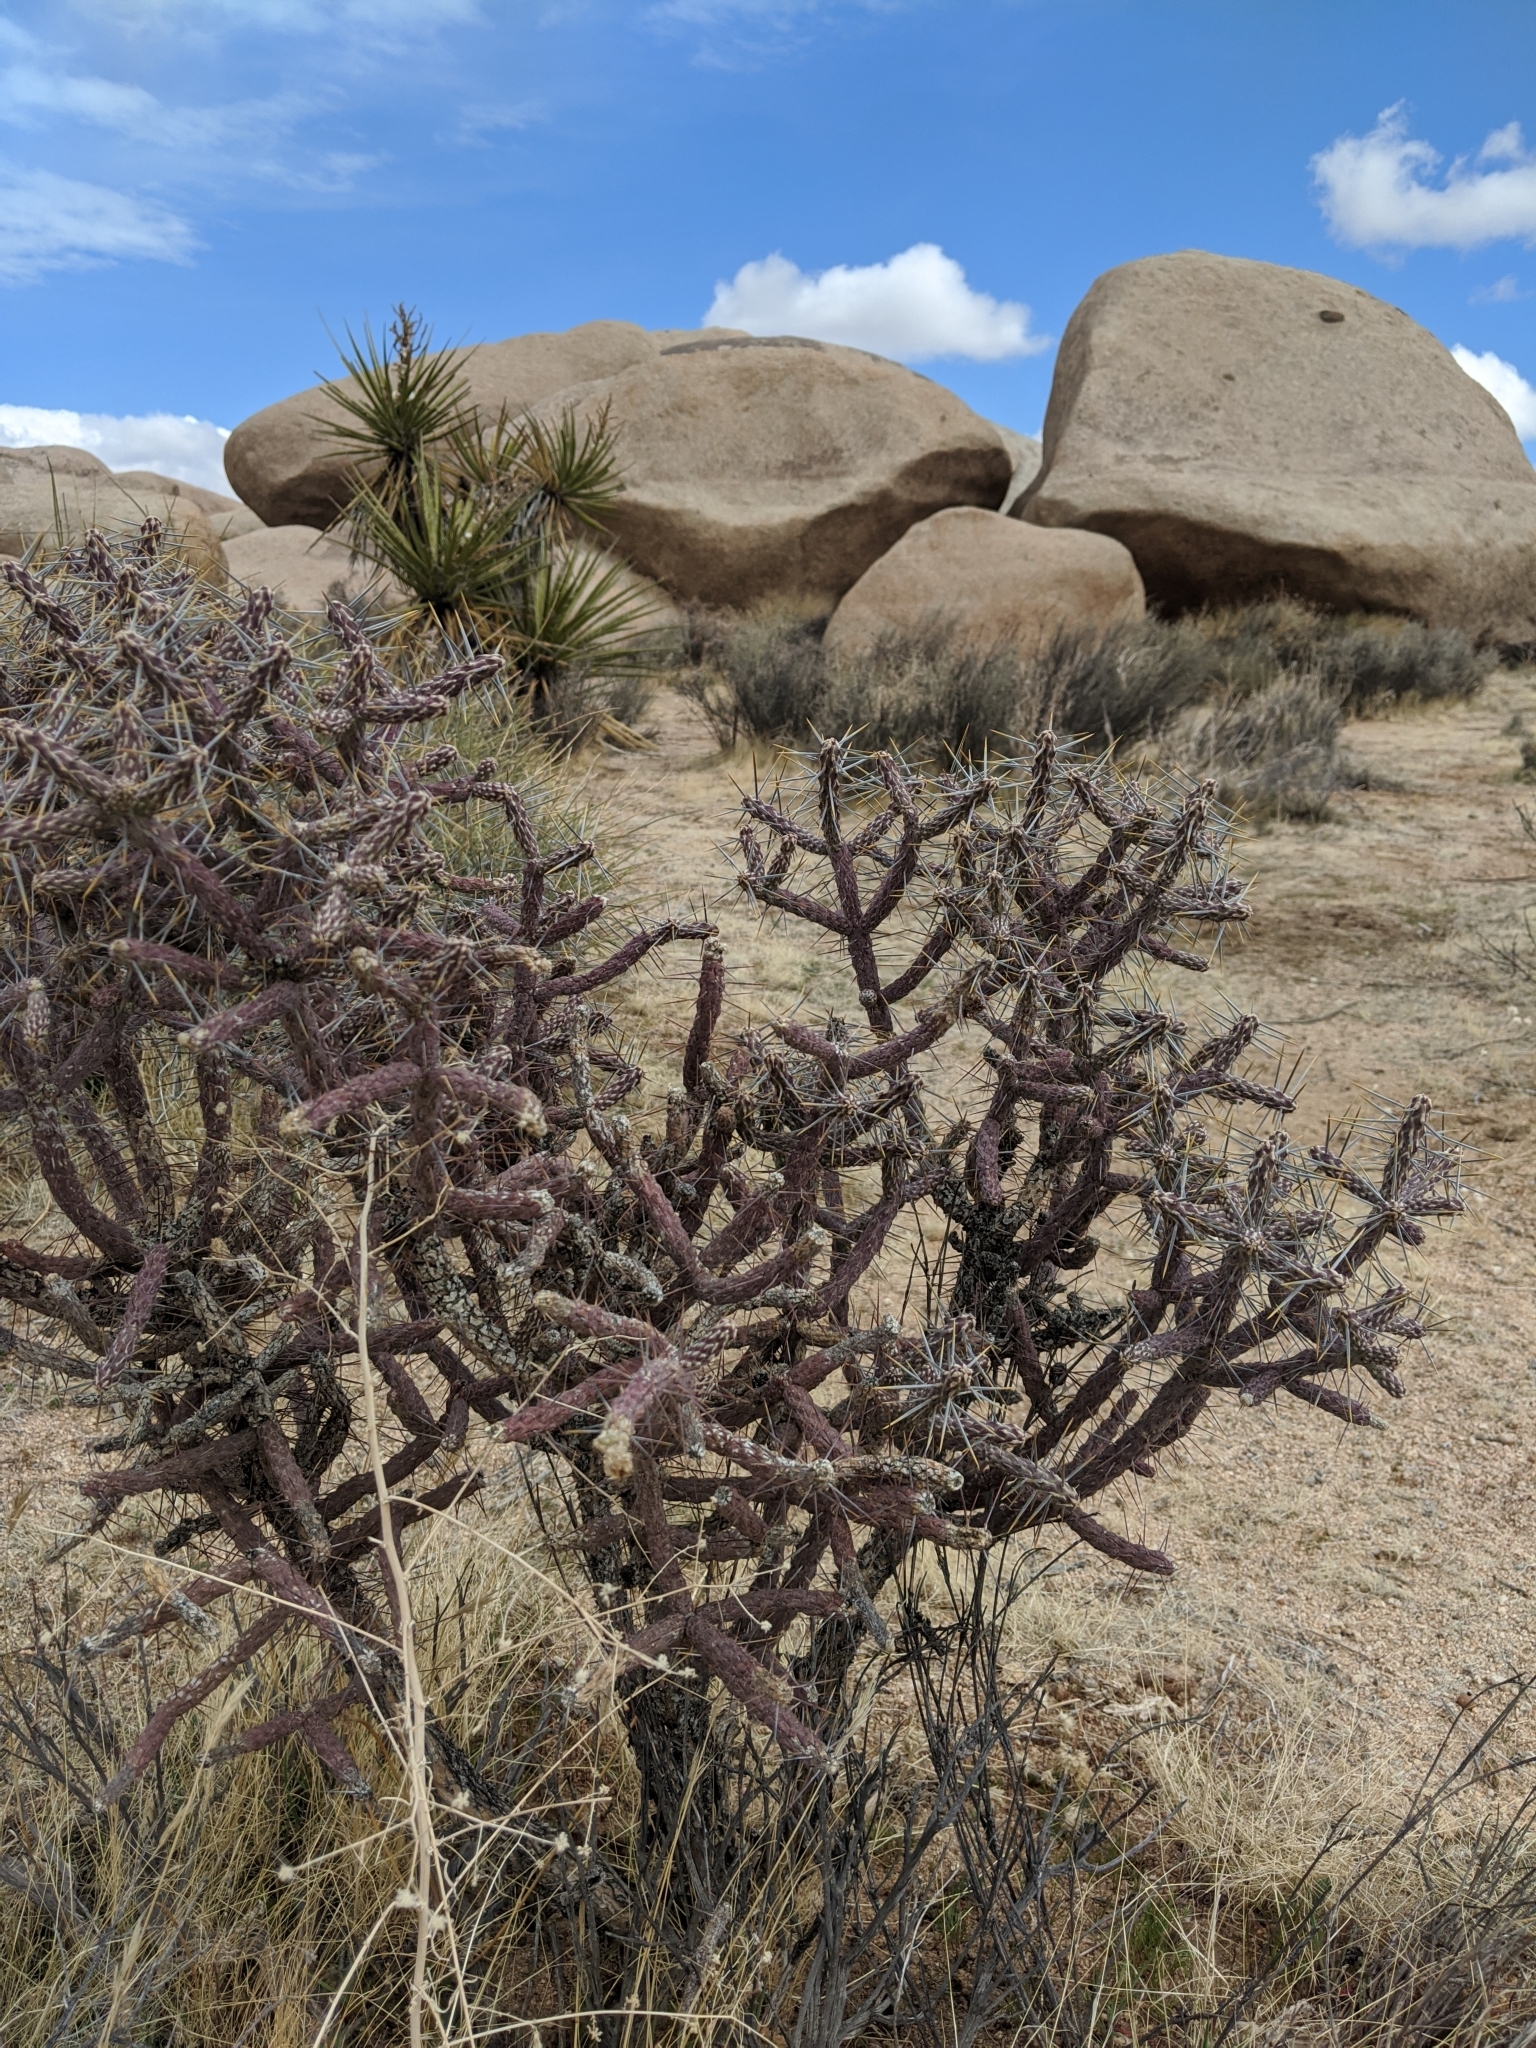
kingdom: Plantae
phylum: Tracheophyta
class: Magnoliopsida
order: Caryophyllales
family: Cactaceae
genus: Cylindropuntia
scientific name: Cylindropuntia ramosissima
